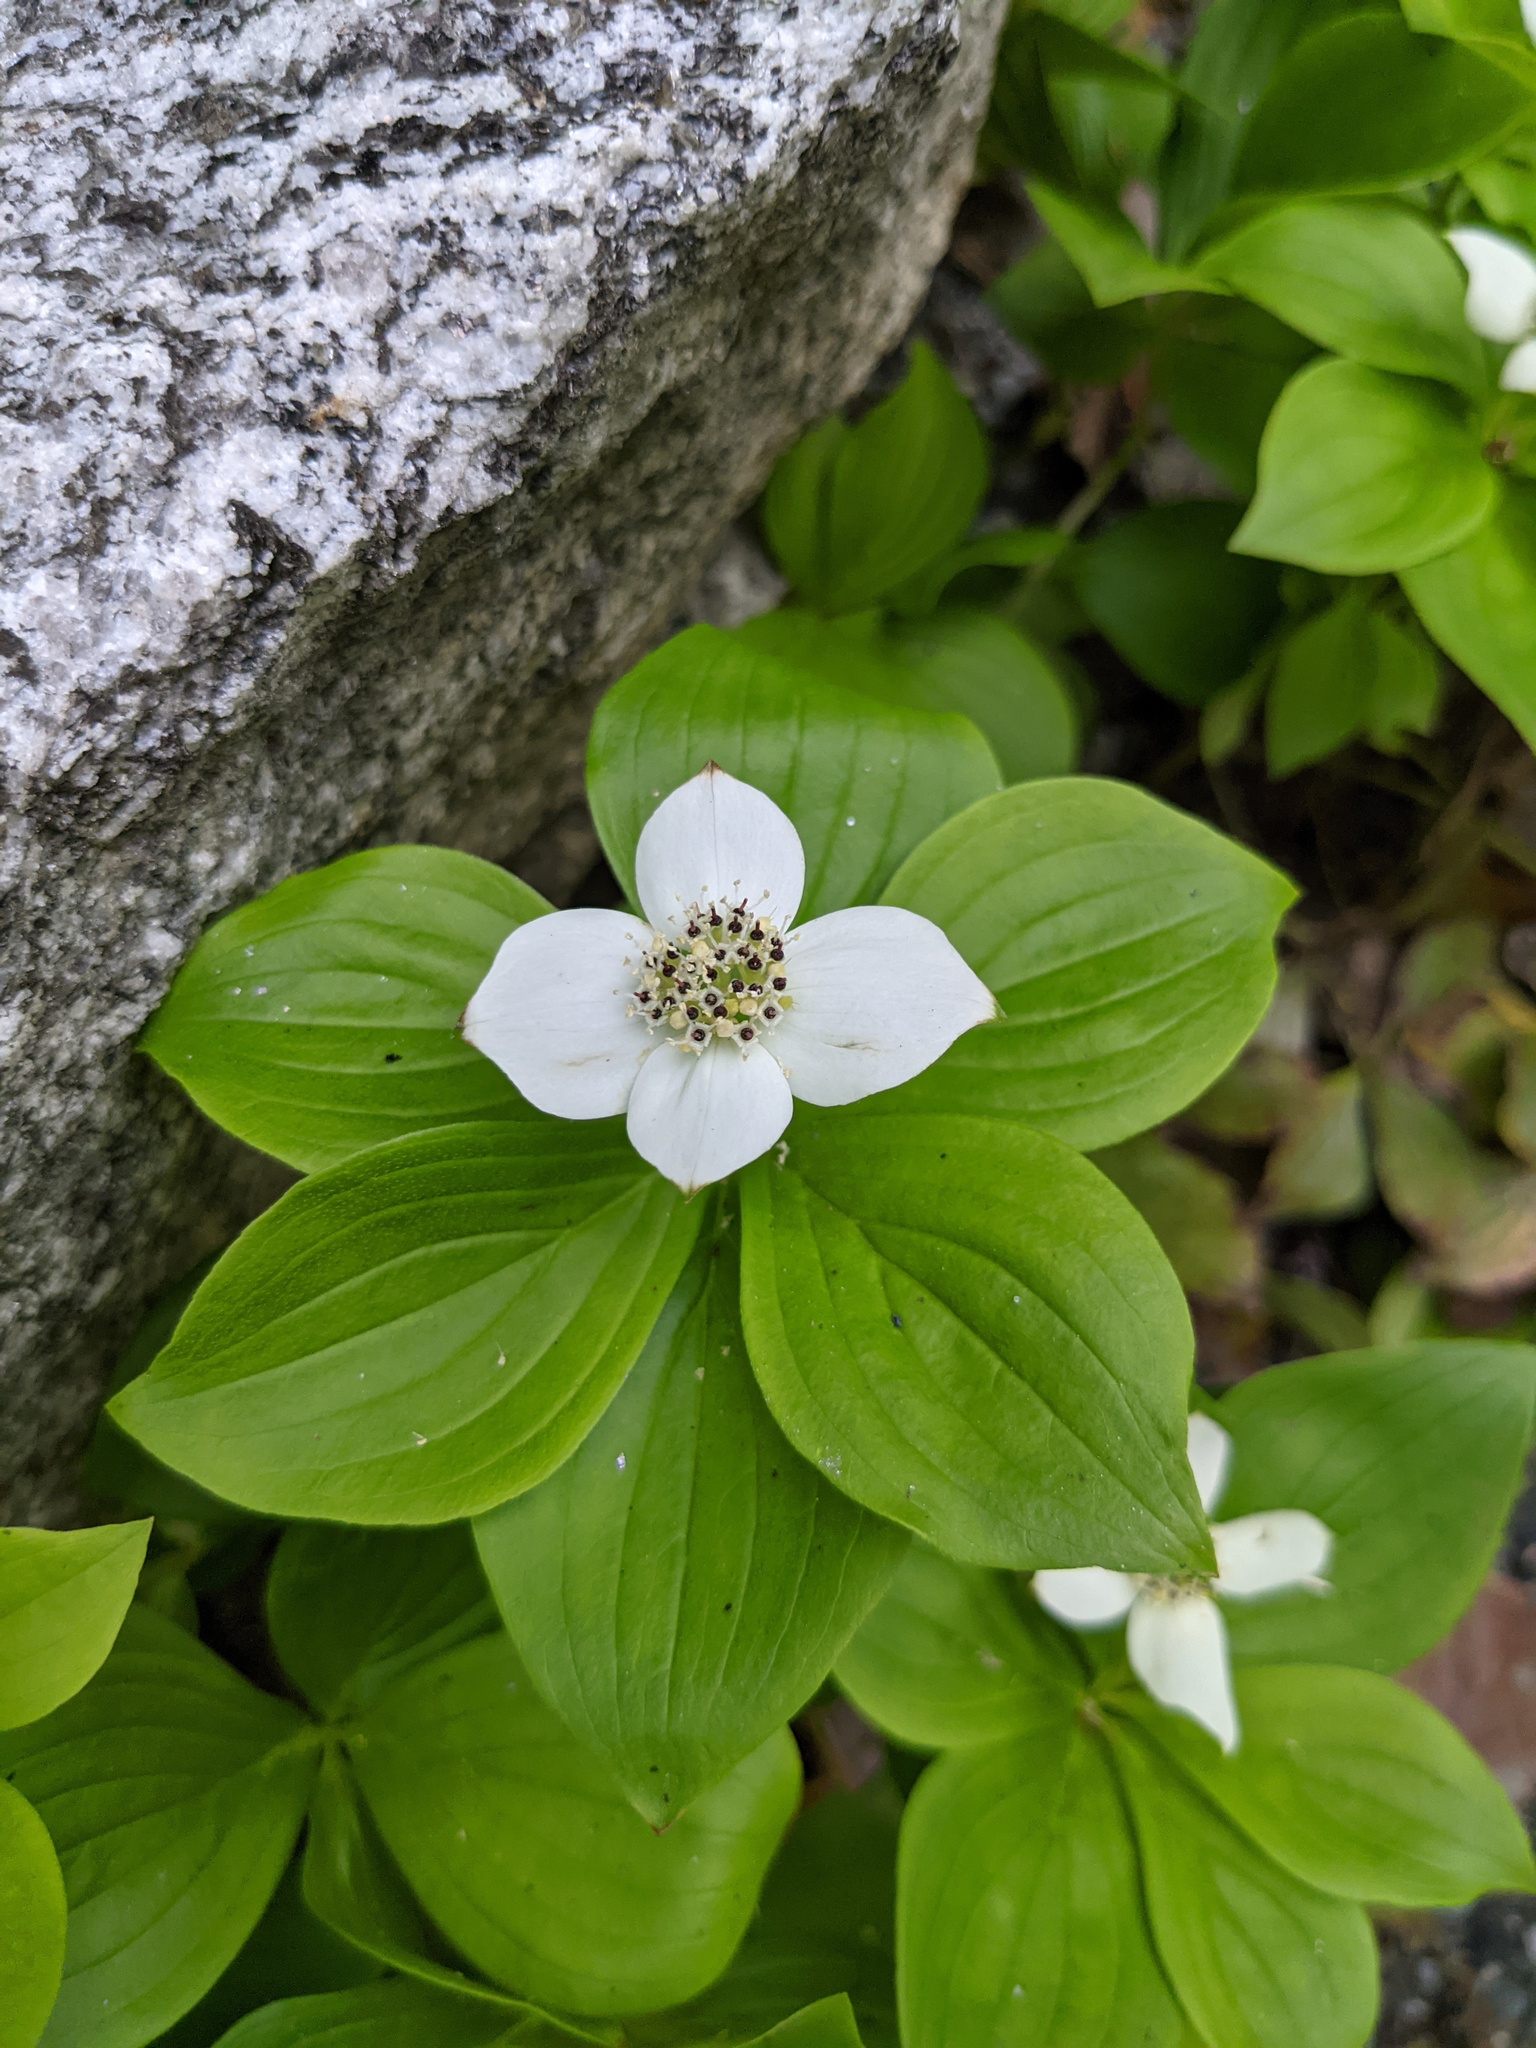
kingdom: Plantae
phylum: Tracheophyta
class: Magnoliopsida
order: Cornales
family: Cornaceae
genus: Cornus
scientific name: Cornus canadensis
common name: Creeping dogwood
